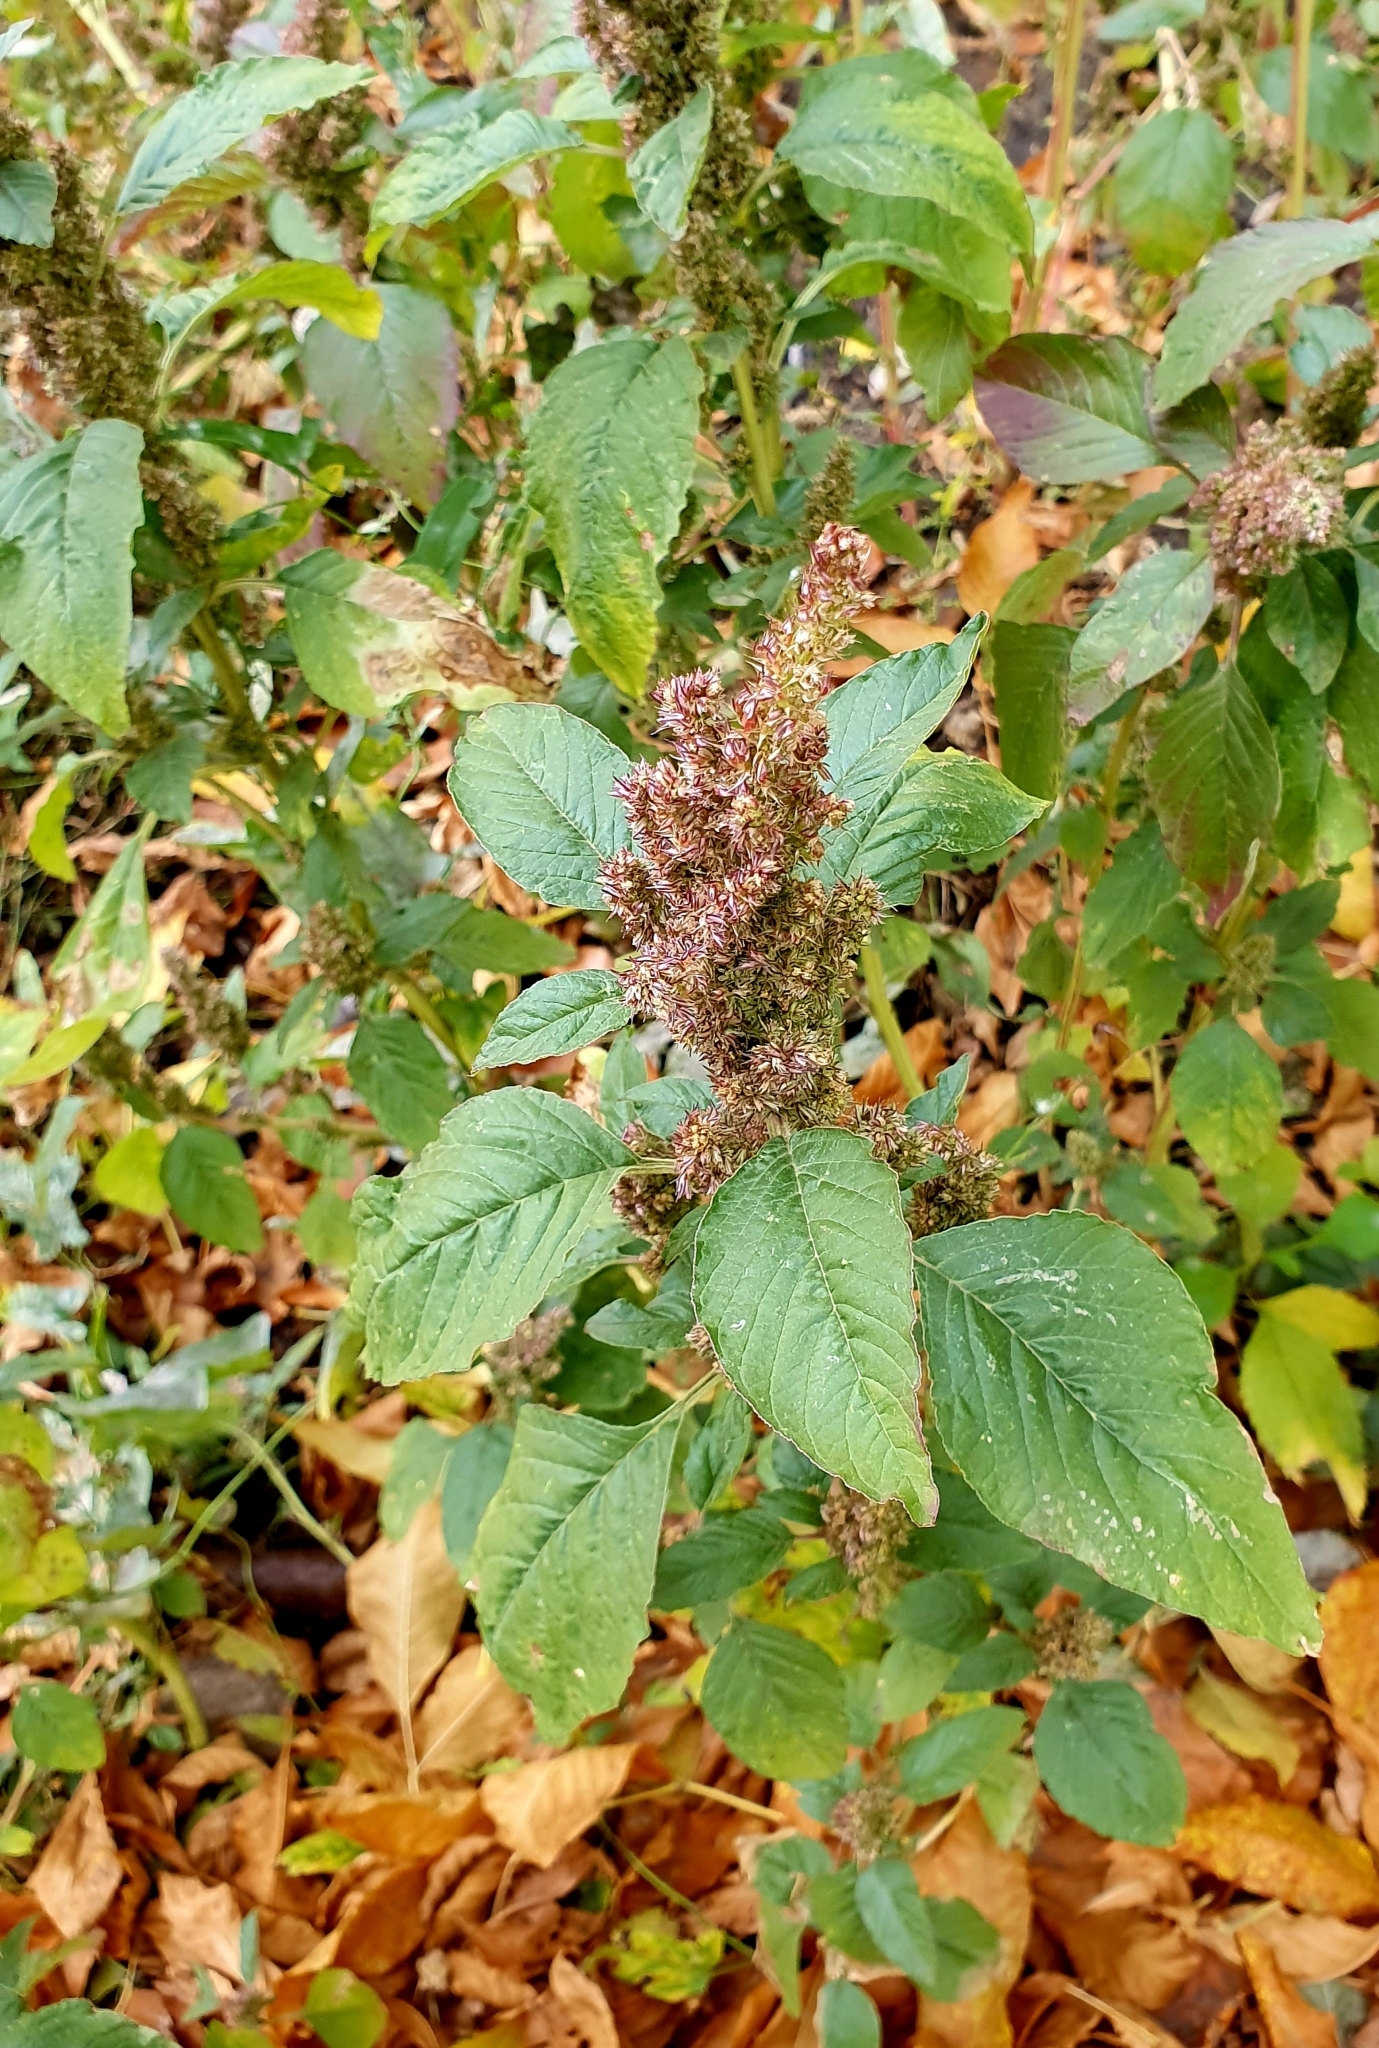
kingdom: Plantae
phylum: Tracheophyta
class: Magnoliopsida
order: Caryophyllales
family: Amaranthaceae
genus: Amaranthus
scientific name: Amaranthus retroflexus
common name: Redroot amaranth
